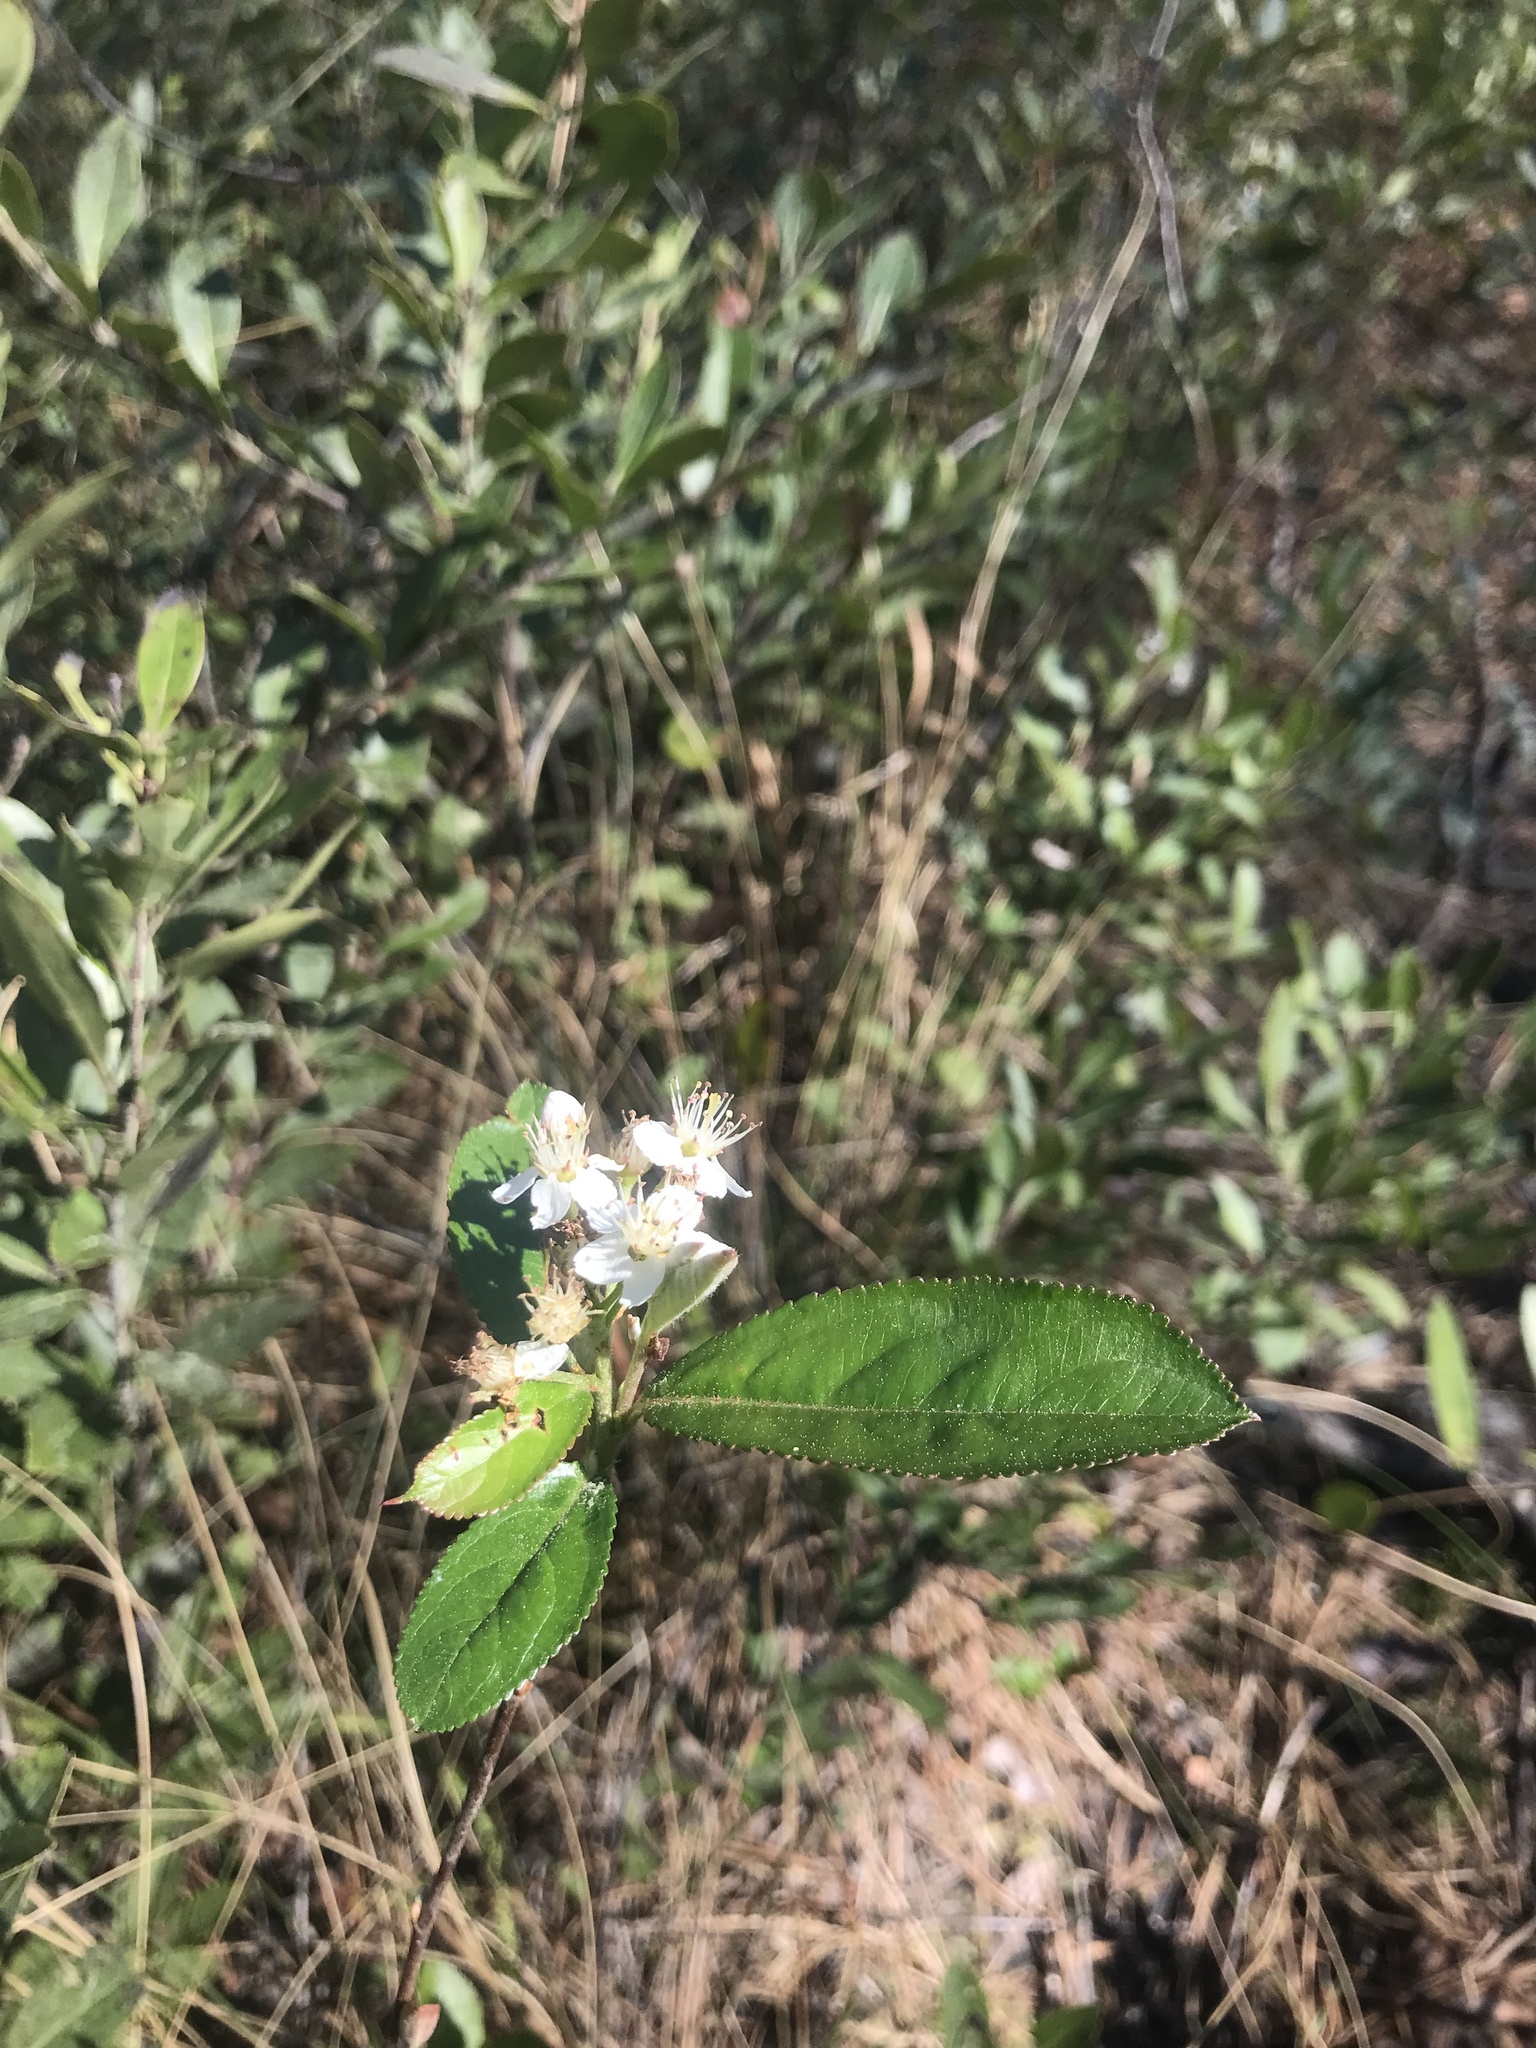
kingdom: Plantae
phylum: Tracheophyta
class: Magnoliopsida
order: Rosales
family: Rosaceae
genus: Aronia
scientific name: Aronia arbutifolia
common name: Red chokeberry
